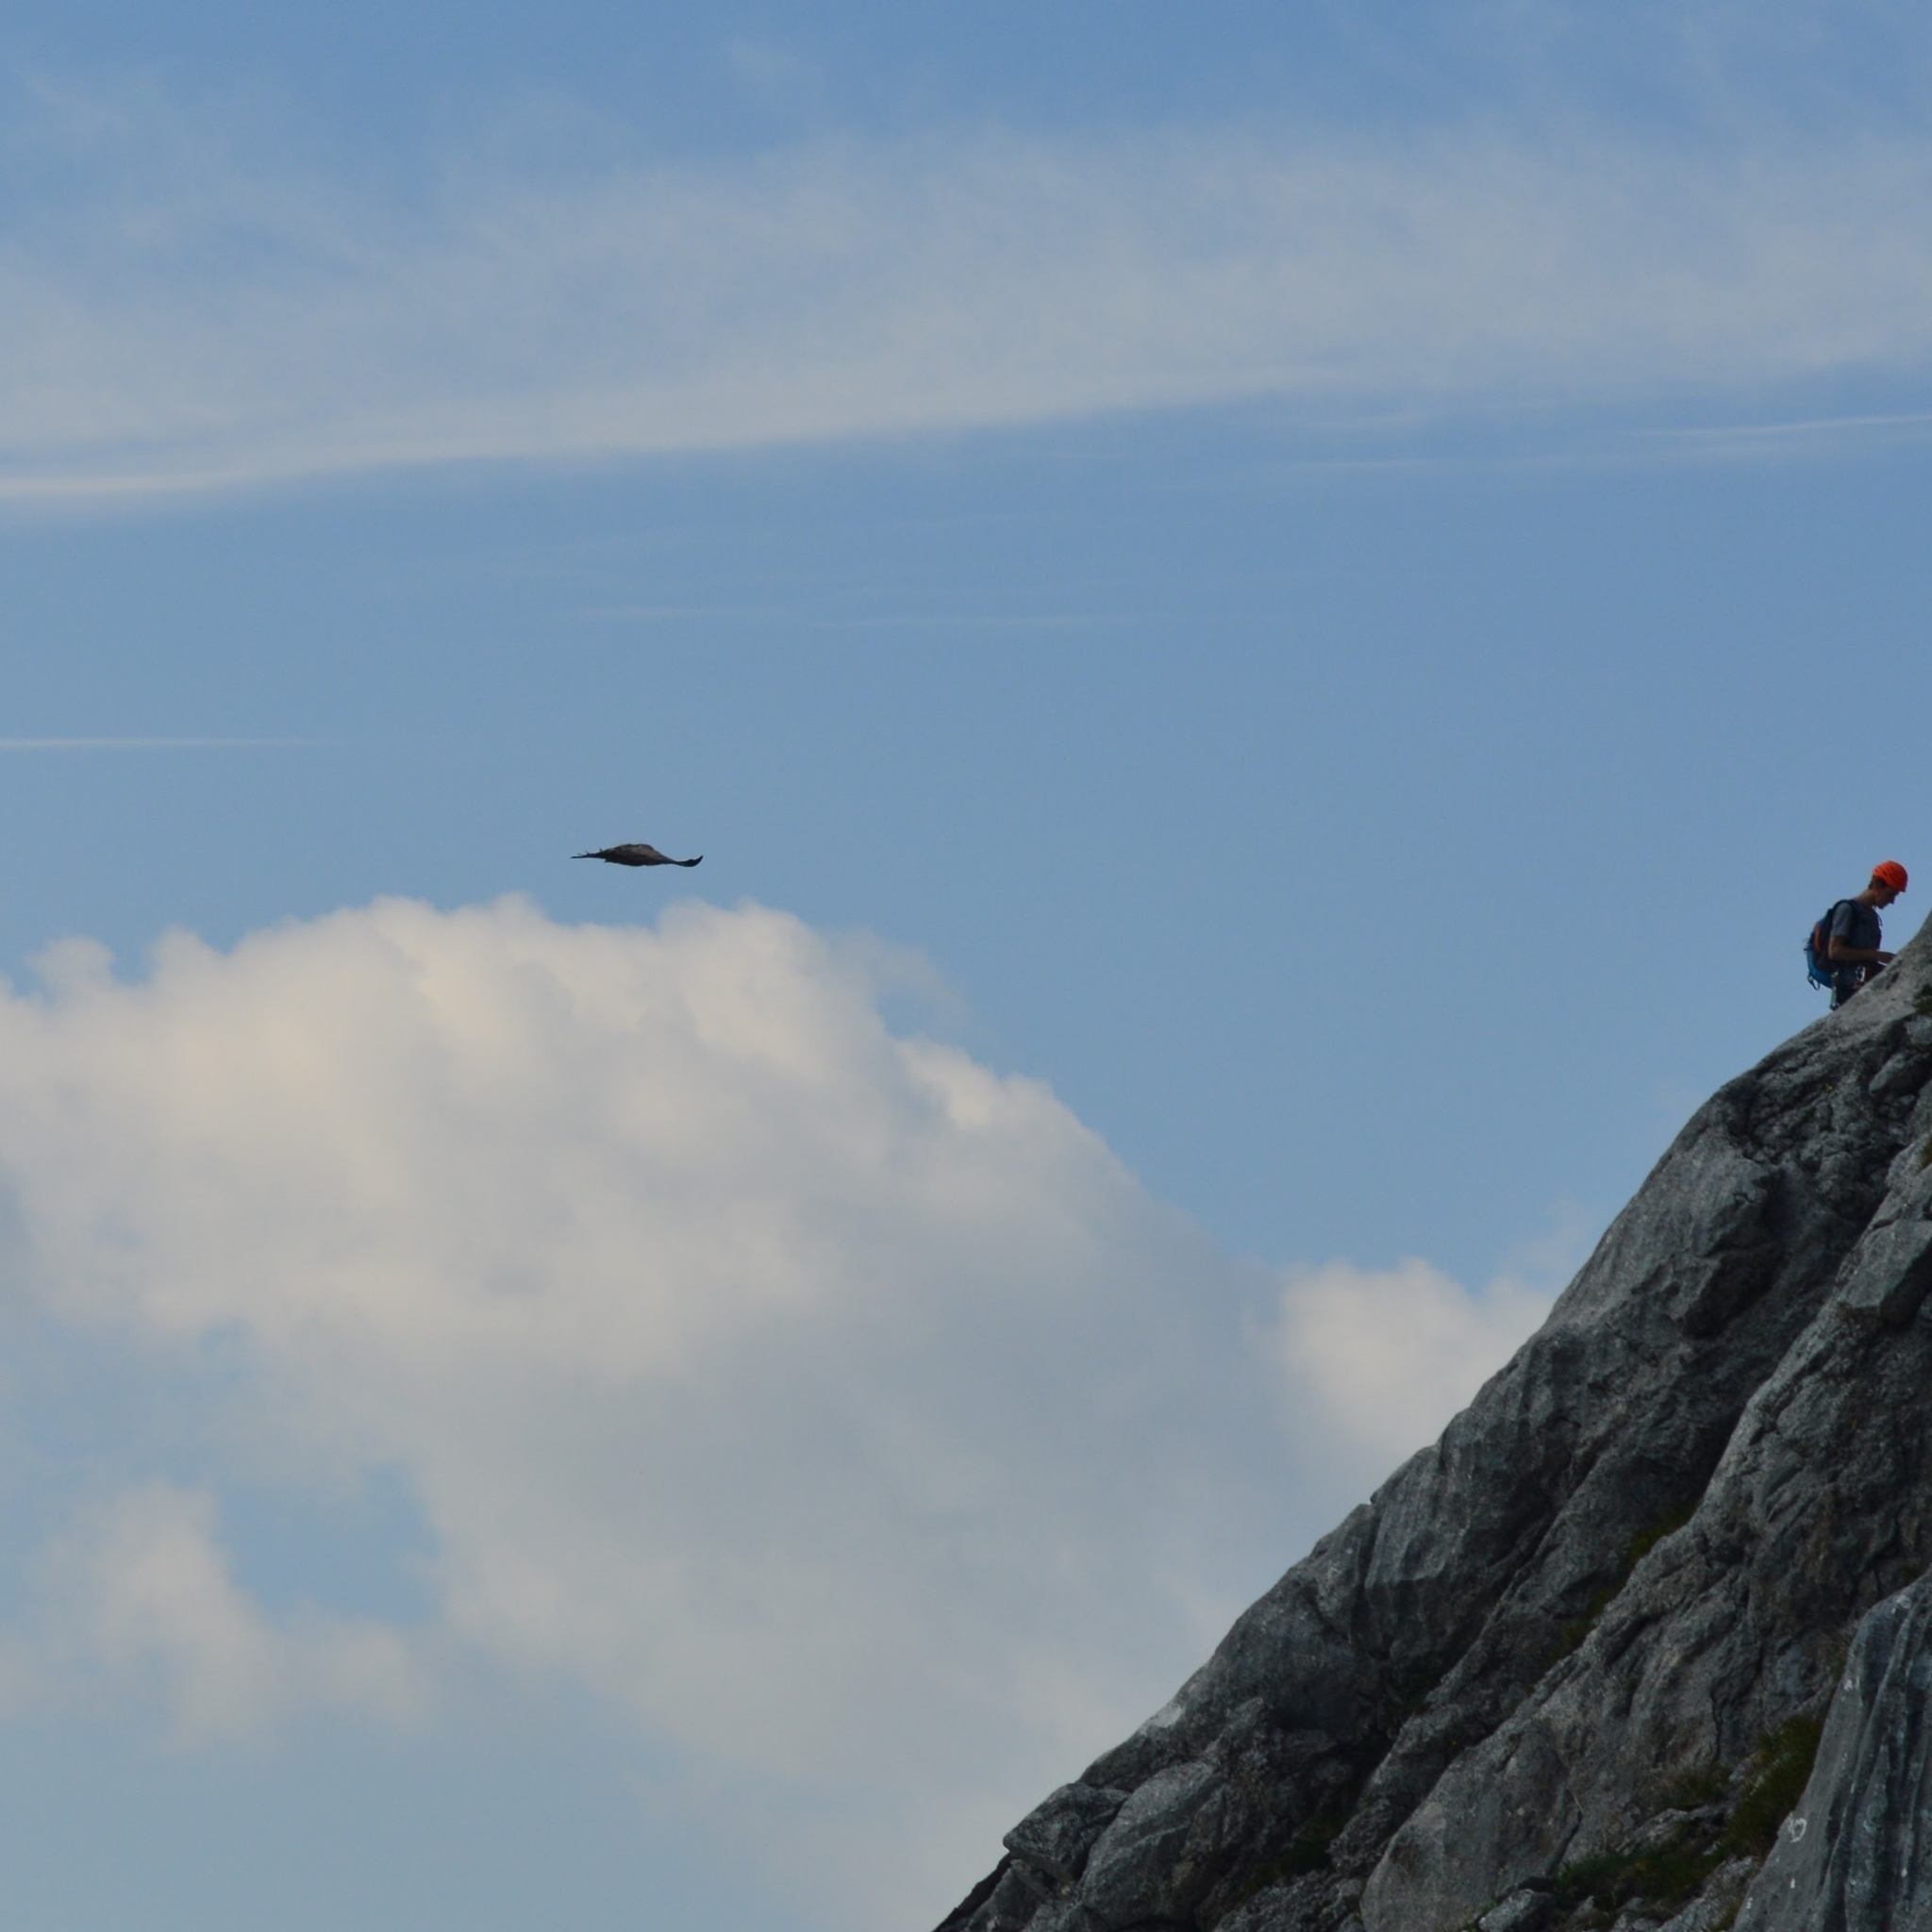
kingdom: Animalia
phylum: Chordata
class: Aves
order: Accipitriformes
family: Accipitridae
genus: Gyps
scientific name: Gyps fulvus
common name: Griffon vulture
